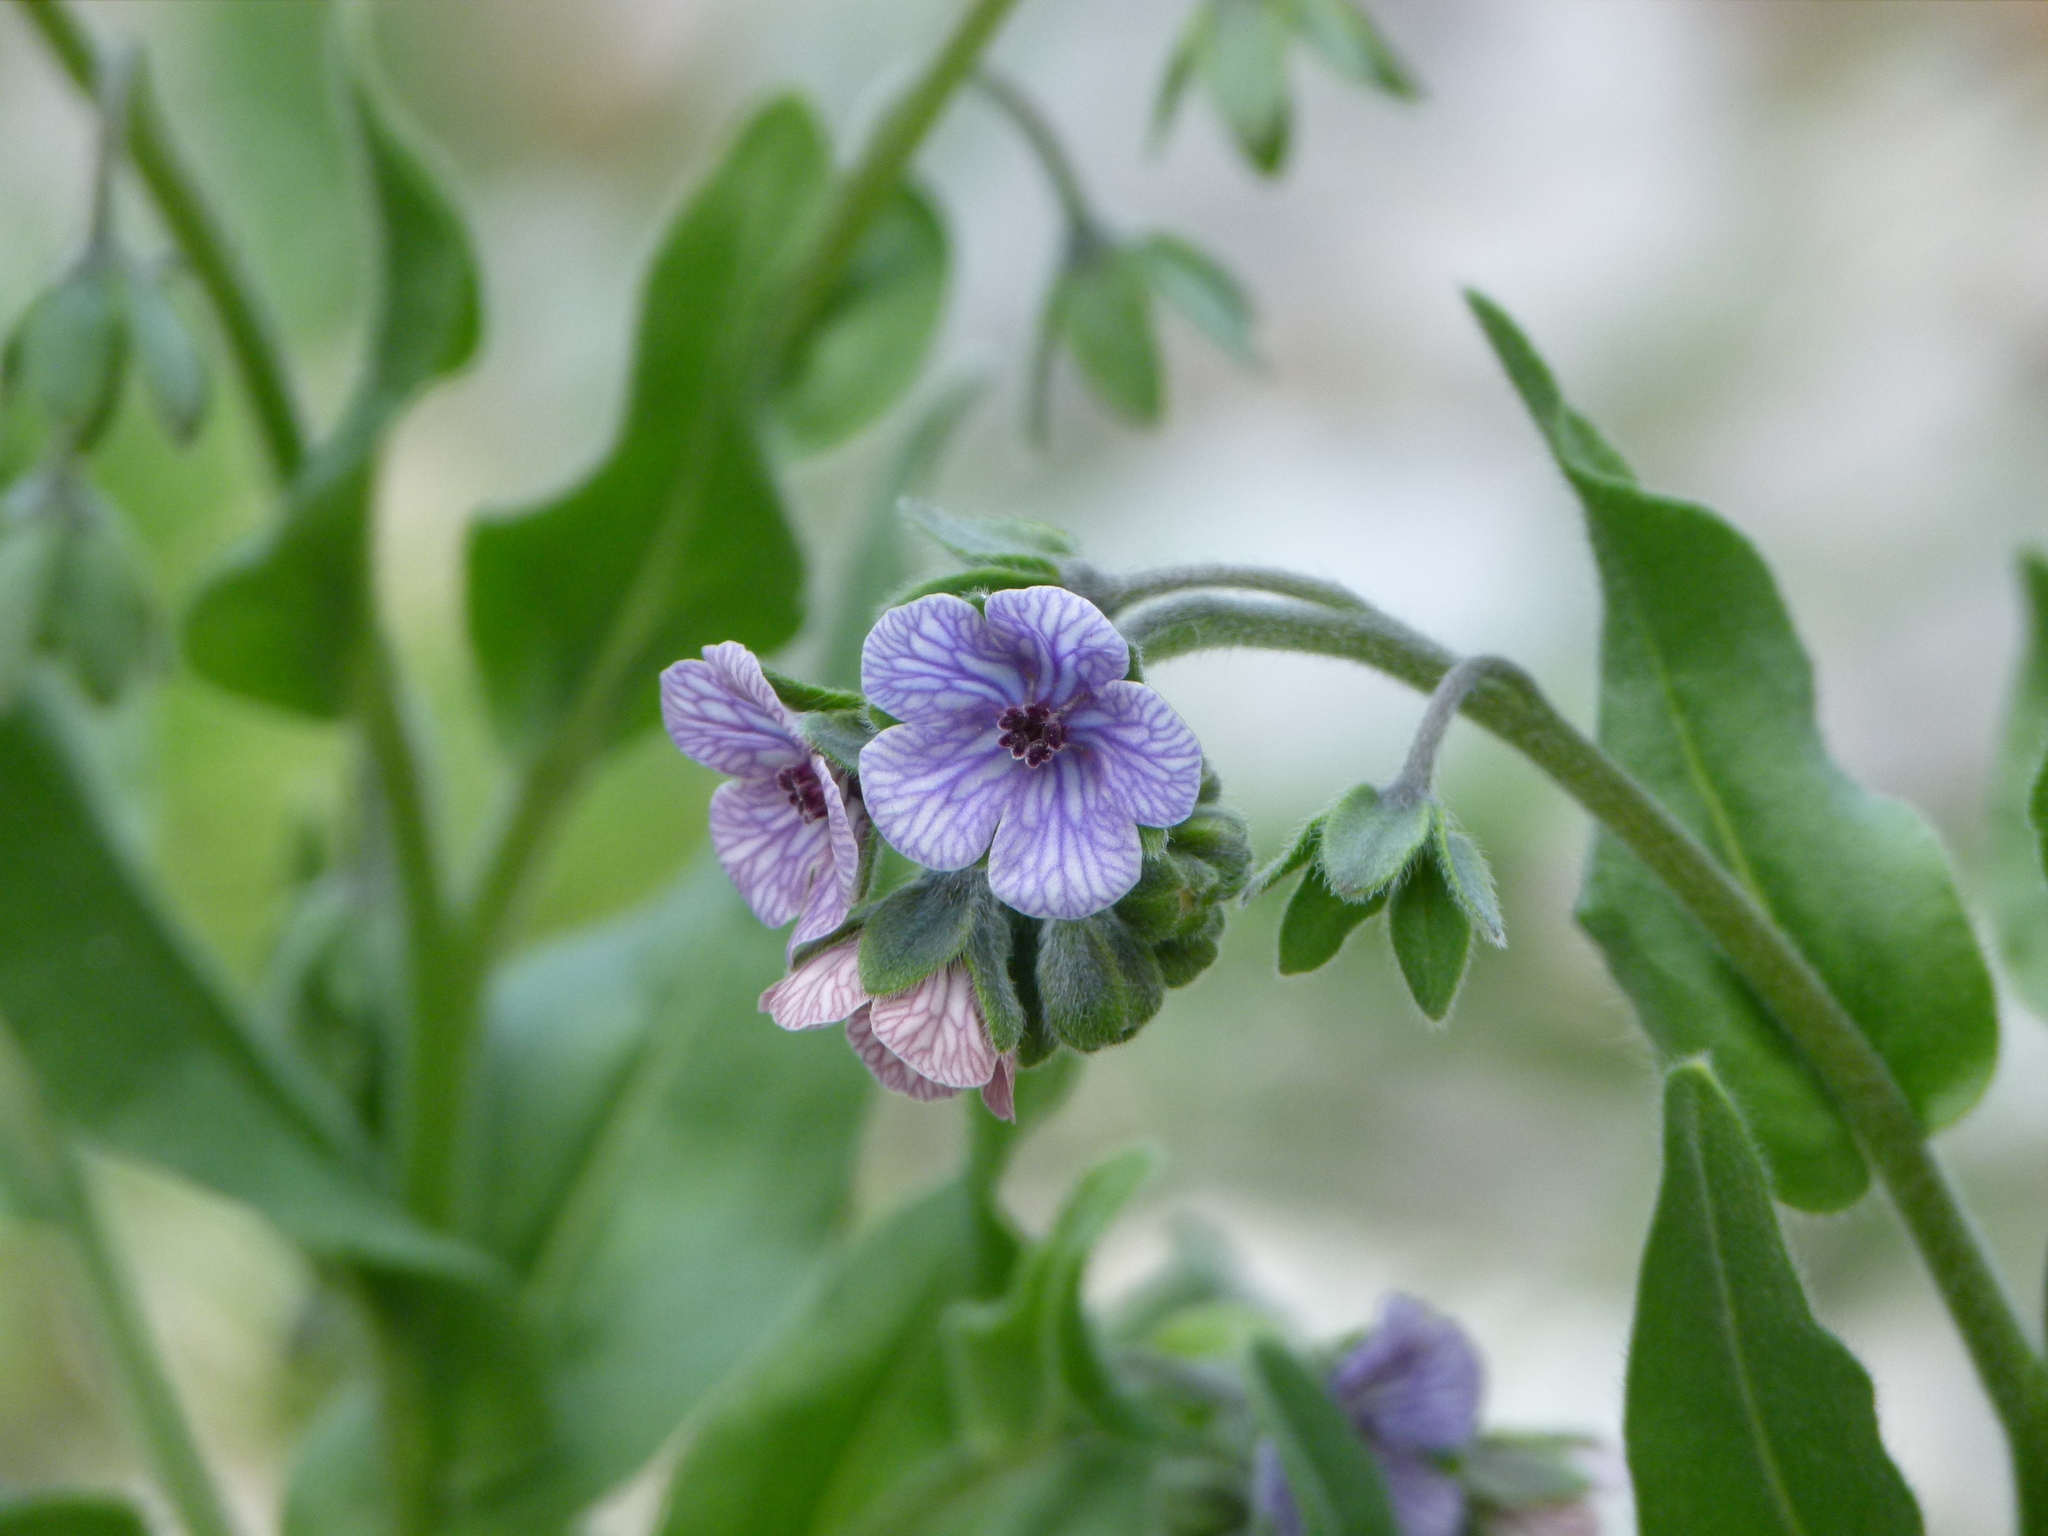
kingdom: Plantae
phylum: Tracheophyta
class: Magnoliopsida
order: Boraginales
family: Boraginaceae
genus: Cynoglossum
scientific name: Cynoglossum creticum
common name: Blue hound's tongue
